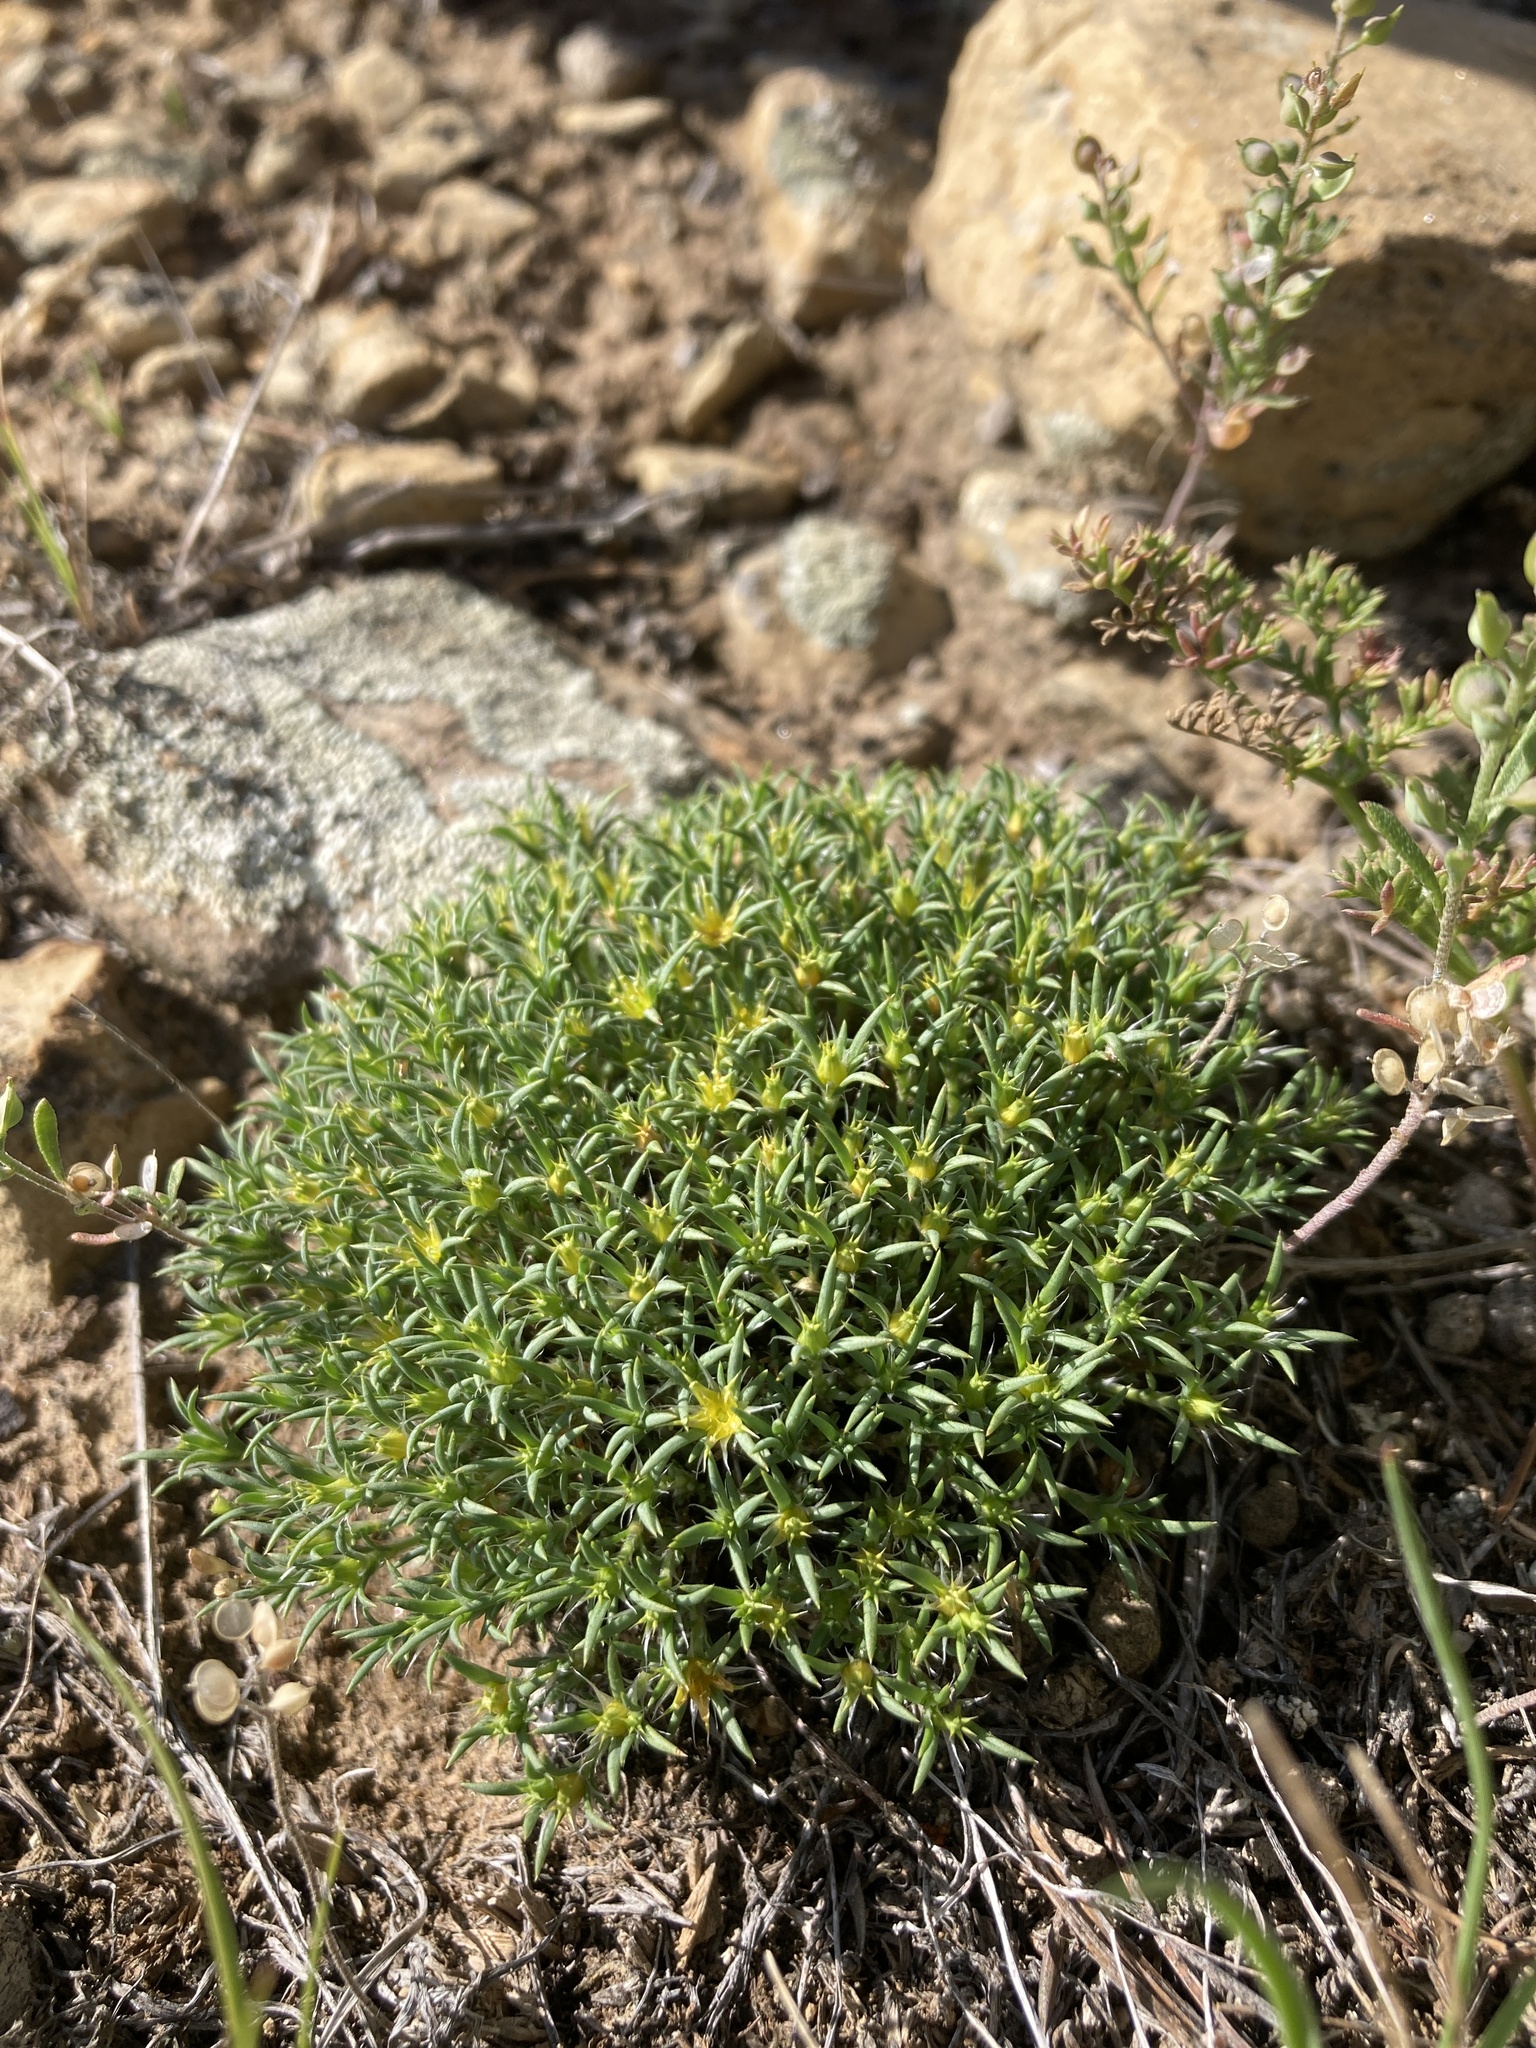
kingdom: Plantae
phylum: Tracheophyta
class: Magnoliopsida
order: Caryophyllales
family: Caryophyllaceae
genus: Paronychia
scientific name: Paronychia sessiliflora
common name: Creeping nailwort
